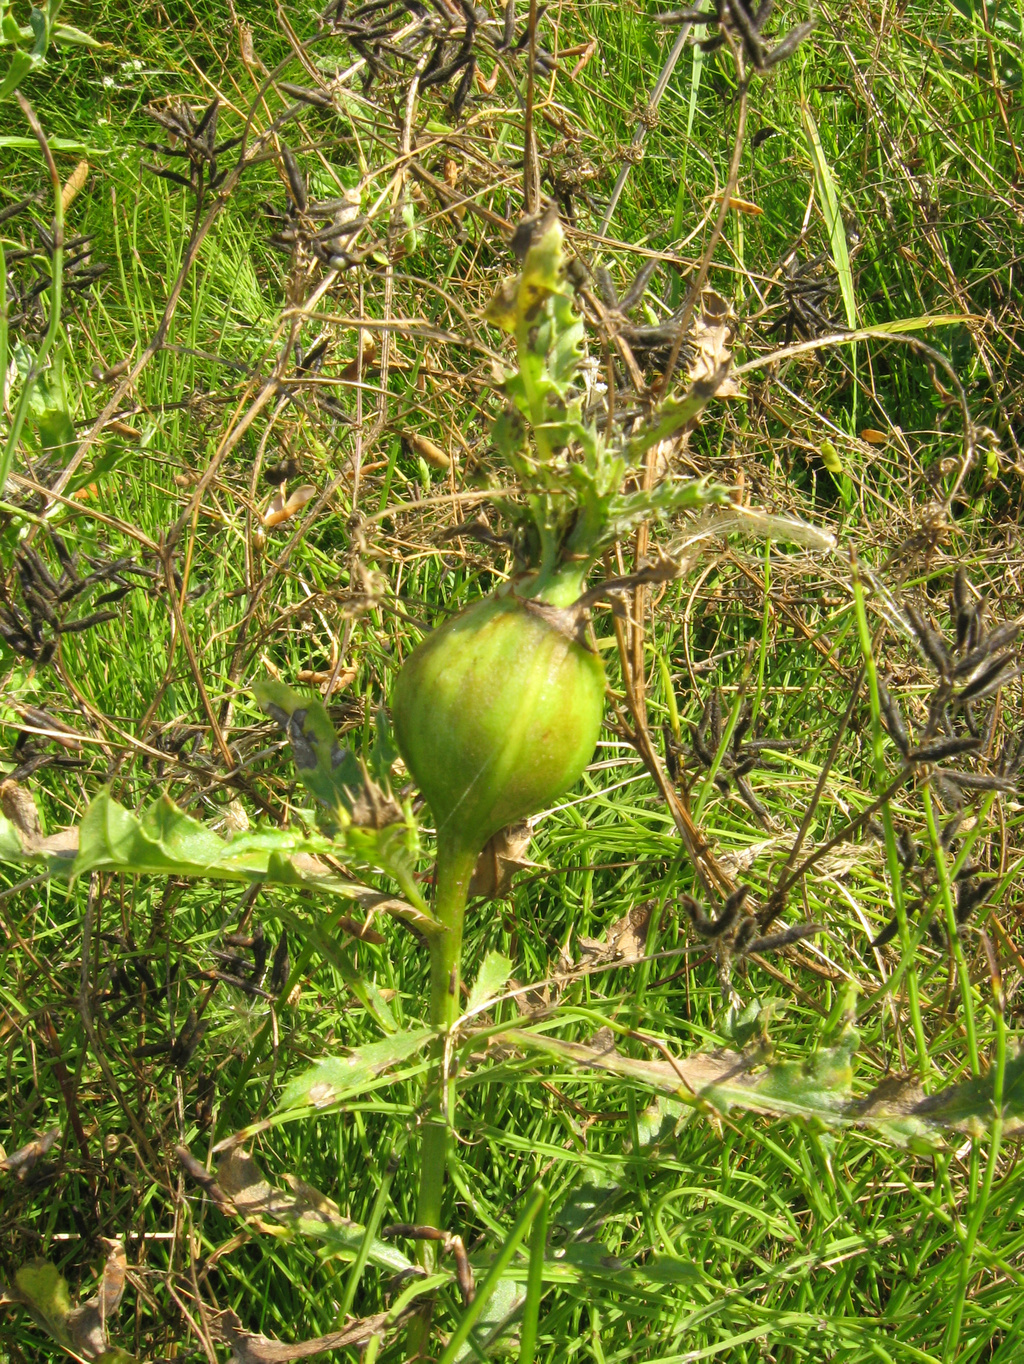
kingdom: Animalia
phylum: Arthropoda
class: Insecta
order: Diptera
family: Tephritidae
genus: Urophora
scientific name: Urophora cardui
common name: Fruit fly
